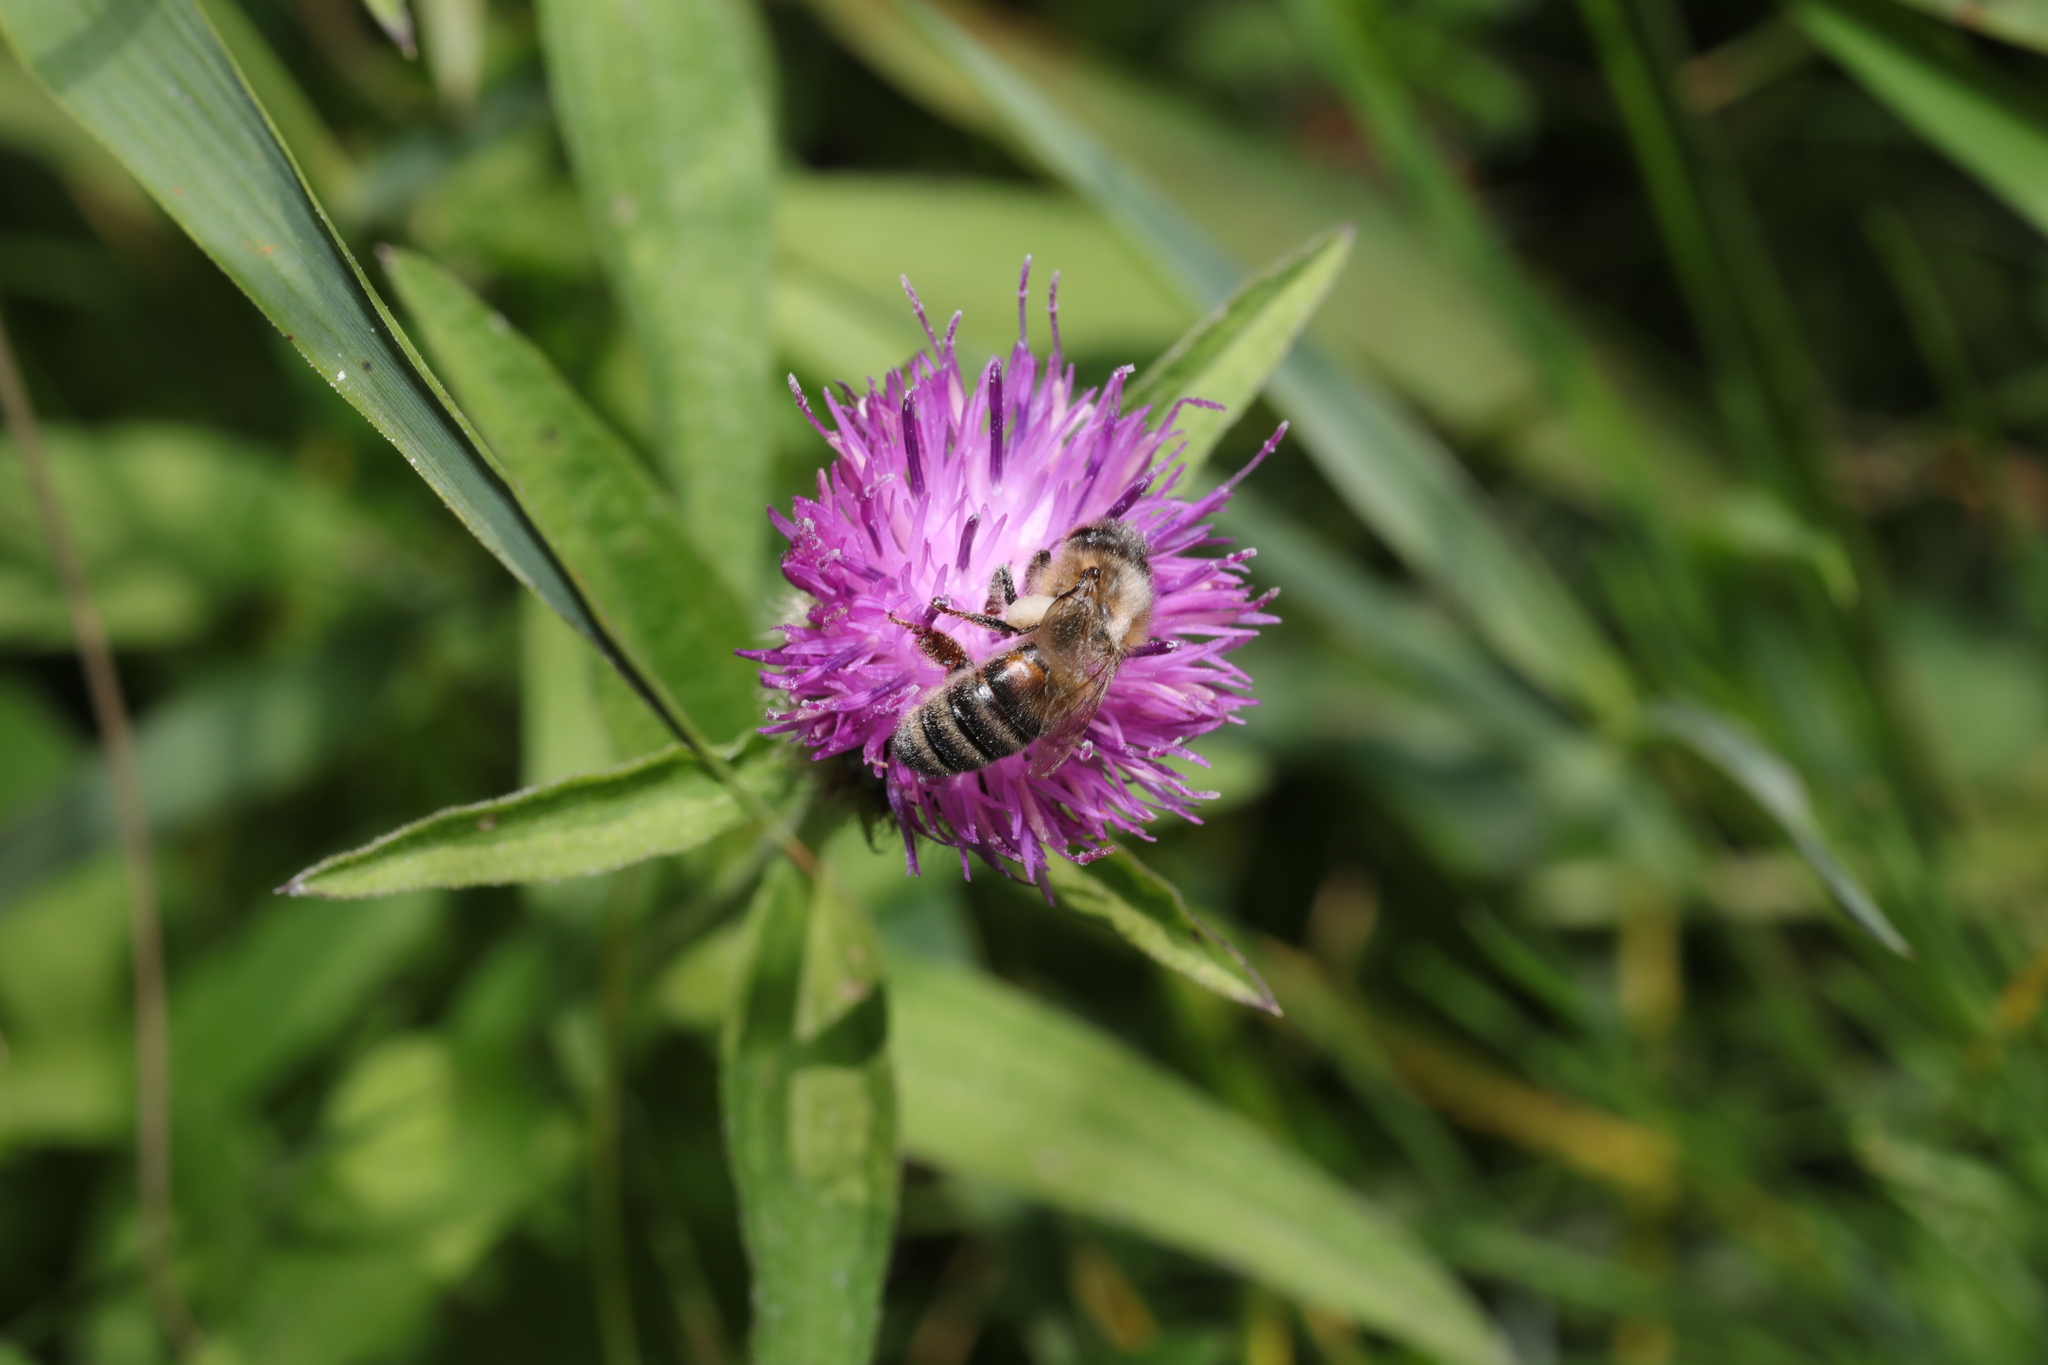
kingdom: Animalia
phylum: Arthropoda
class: Insecta
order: Hymenoptera
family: Apidae
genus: Apis
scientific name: Apis mellifera
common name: Honey bee
